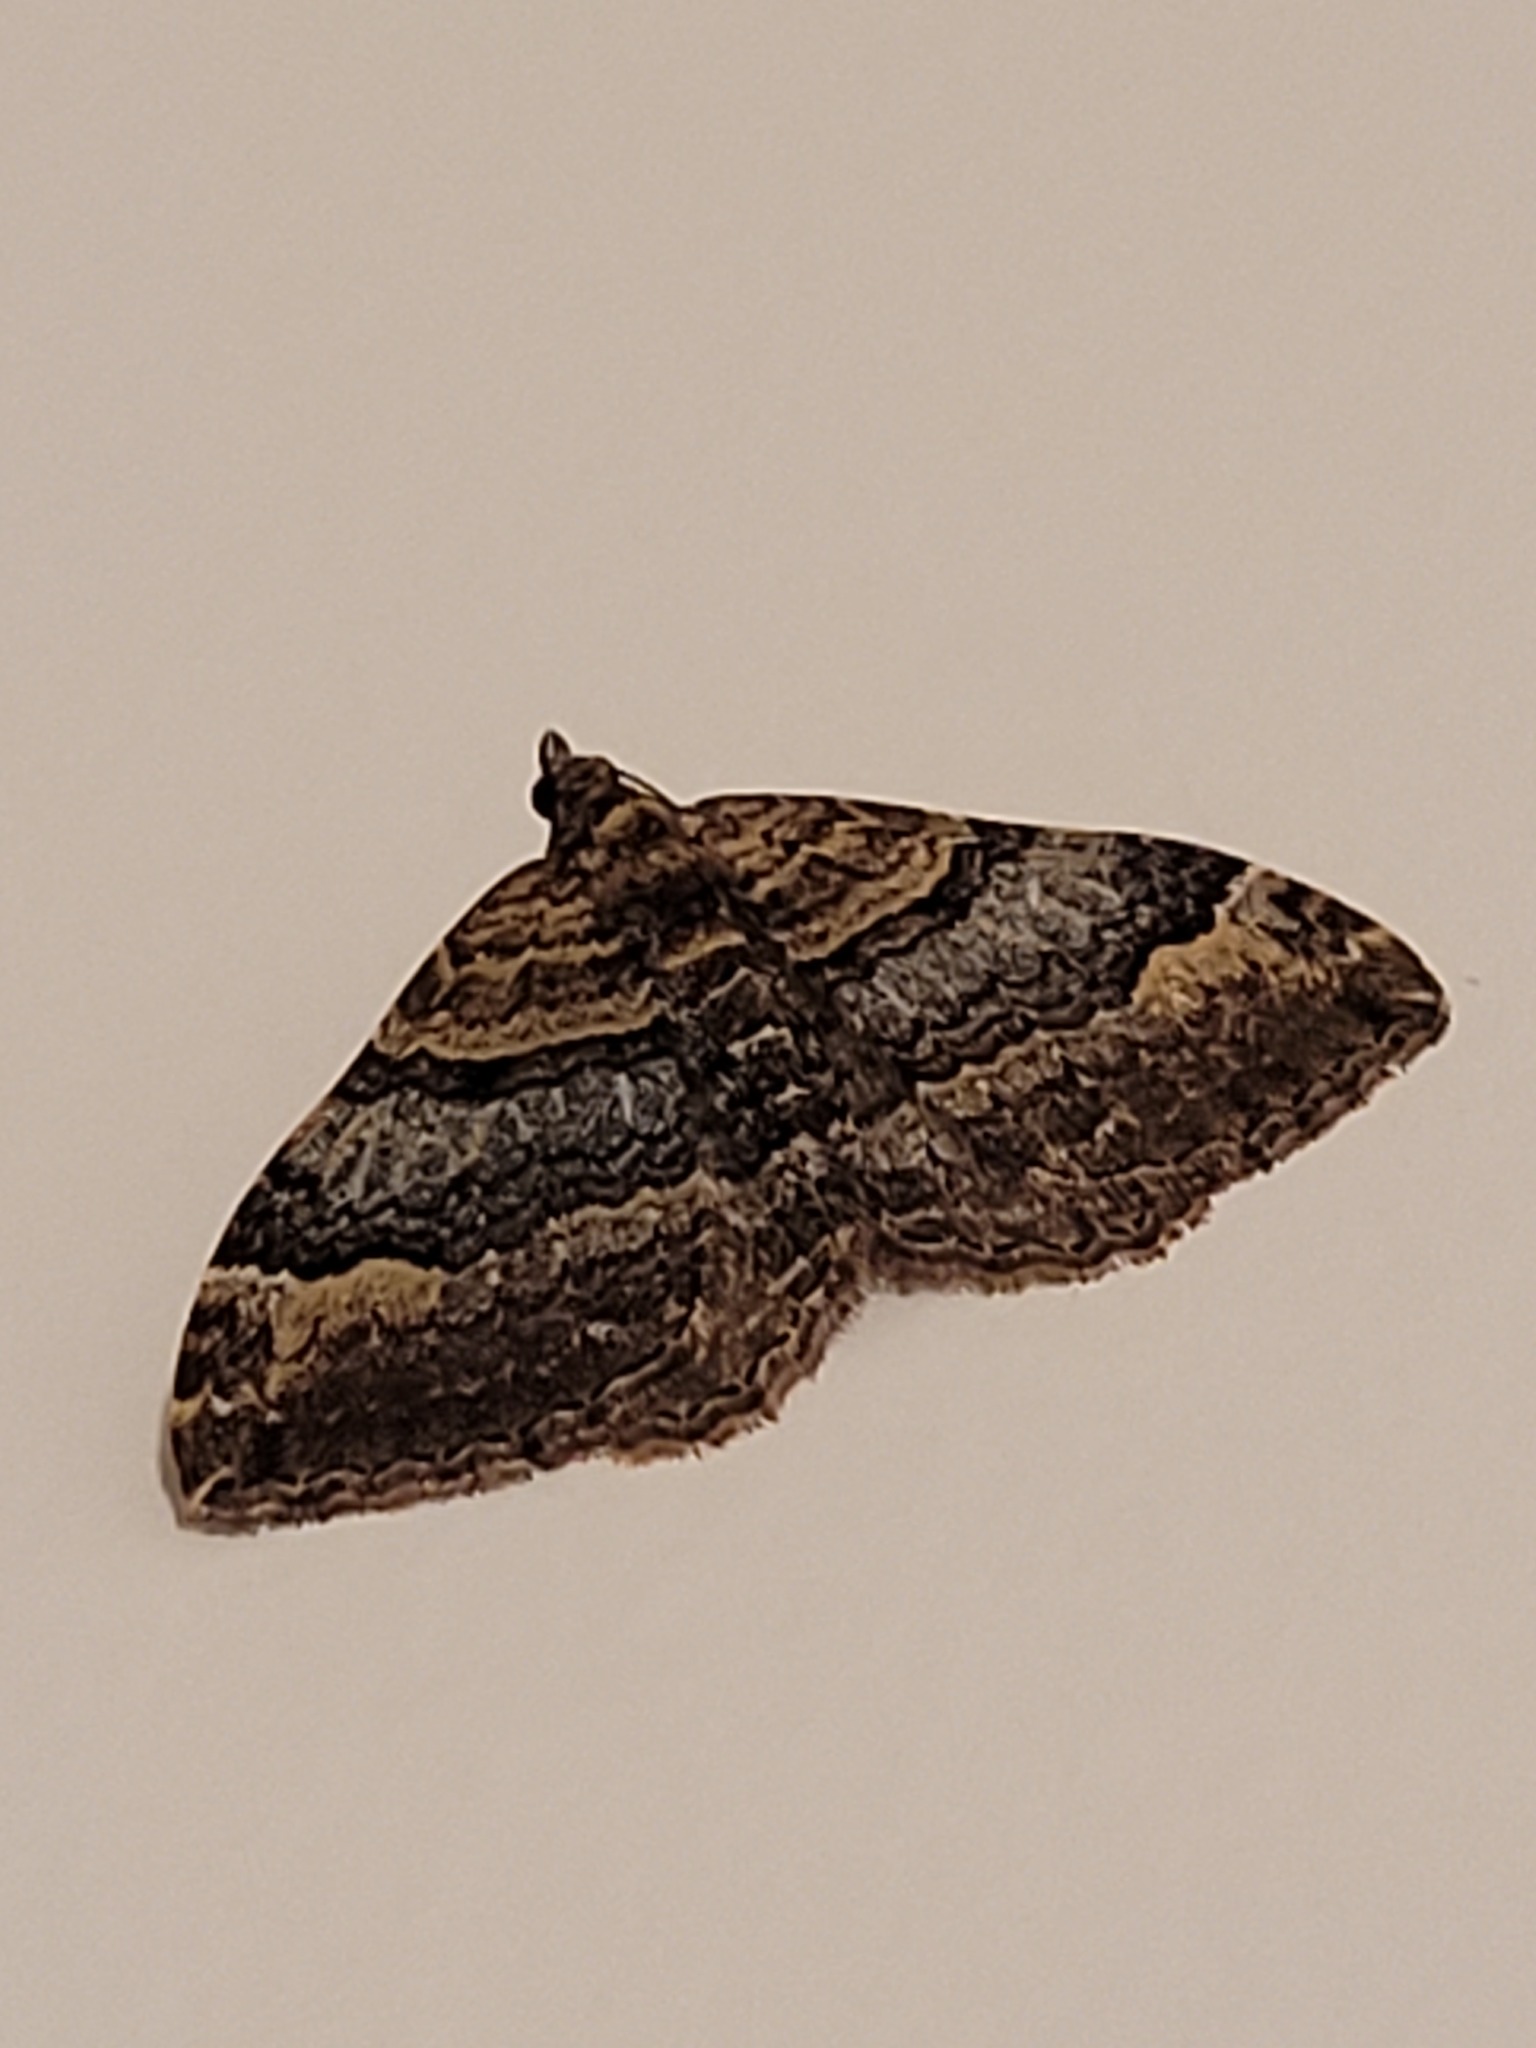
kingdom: Animalia
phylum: Arthropoda
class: Insecta
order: Lepidoptera
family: Geometridae
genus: Epyaxa
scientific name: Epyaxa lucidata
